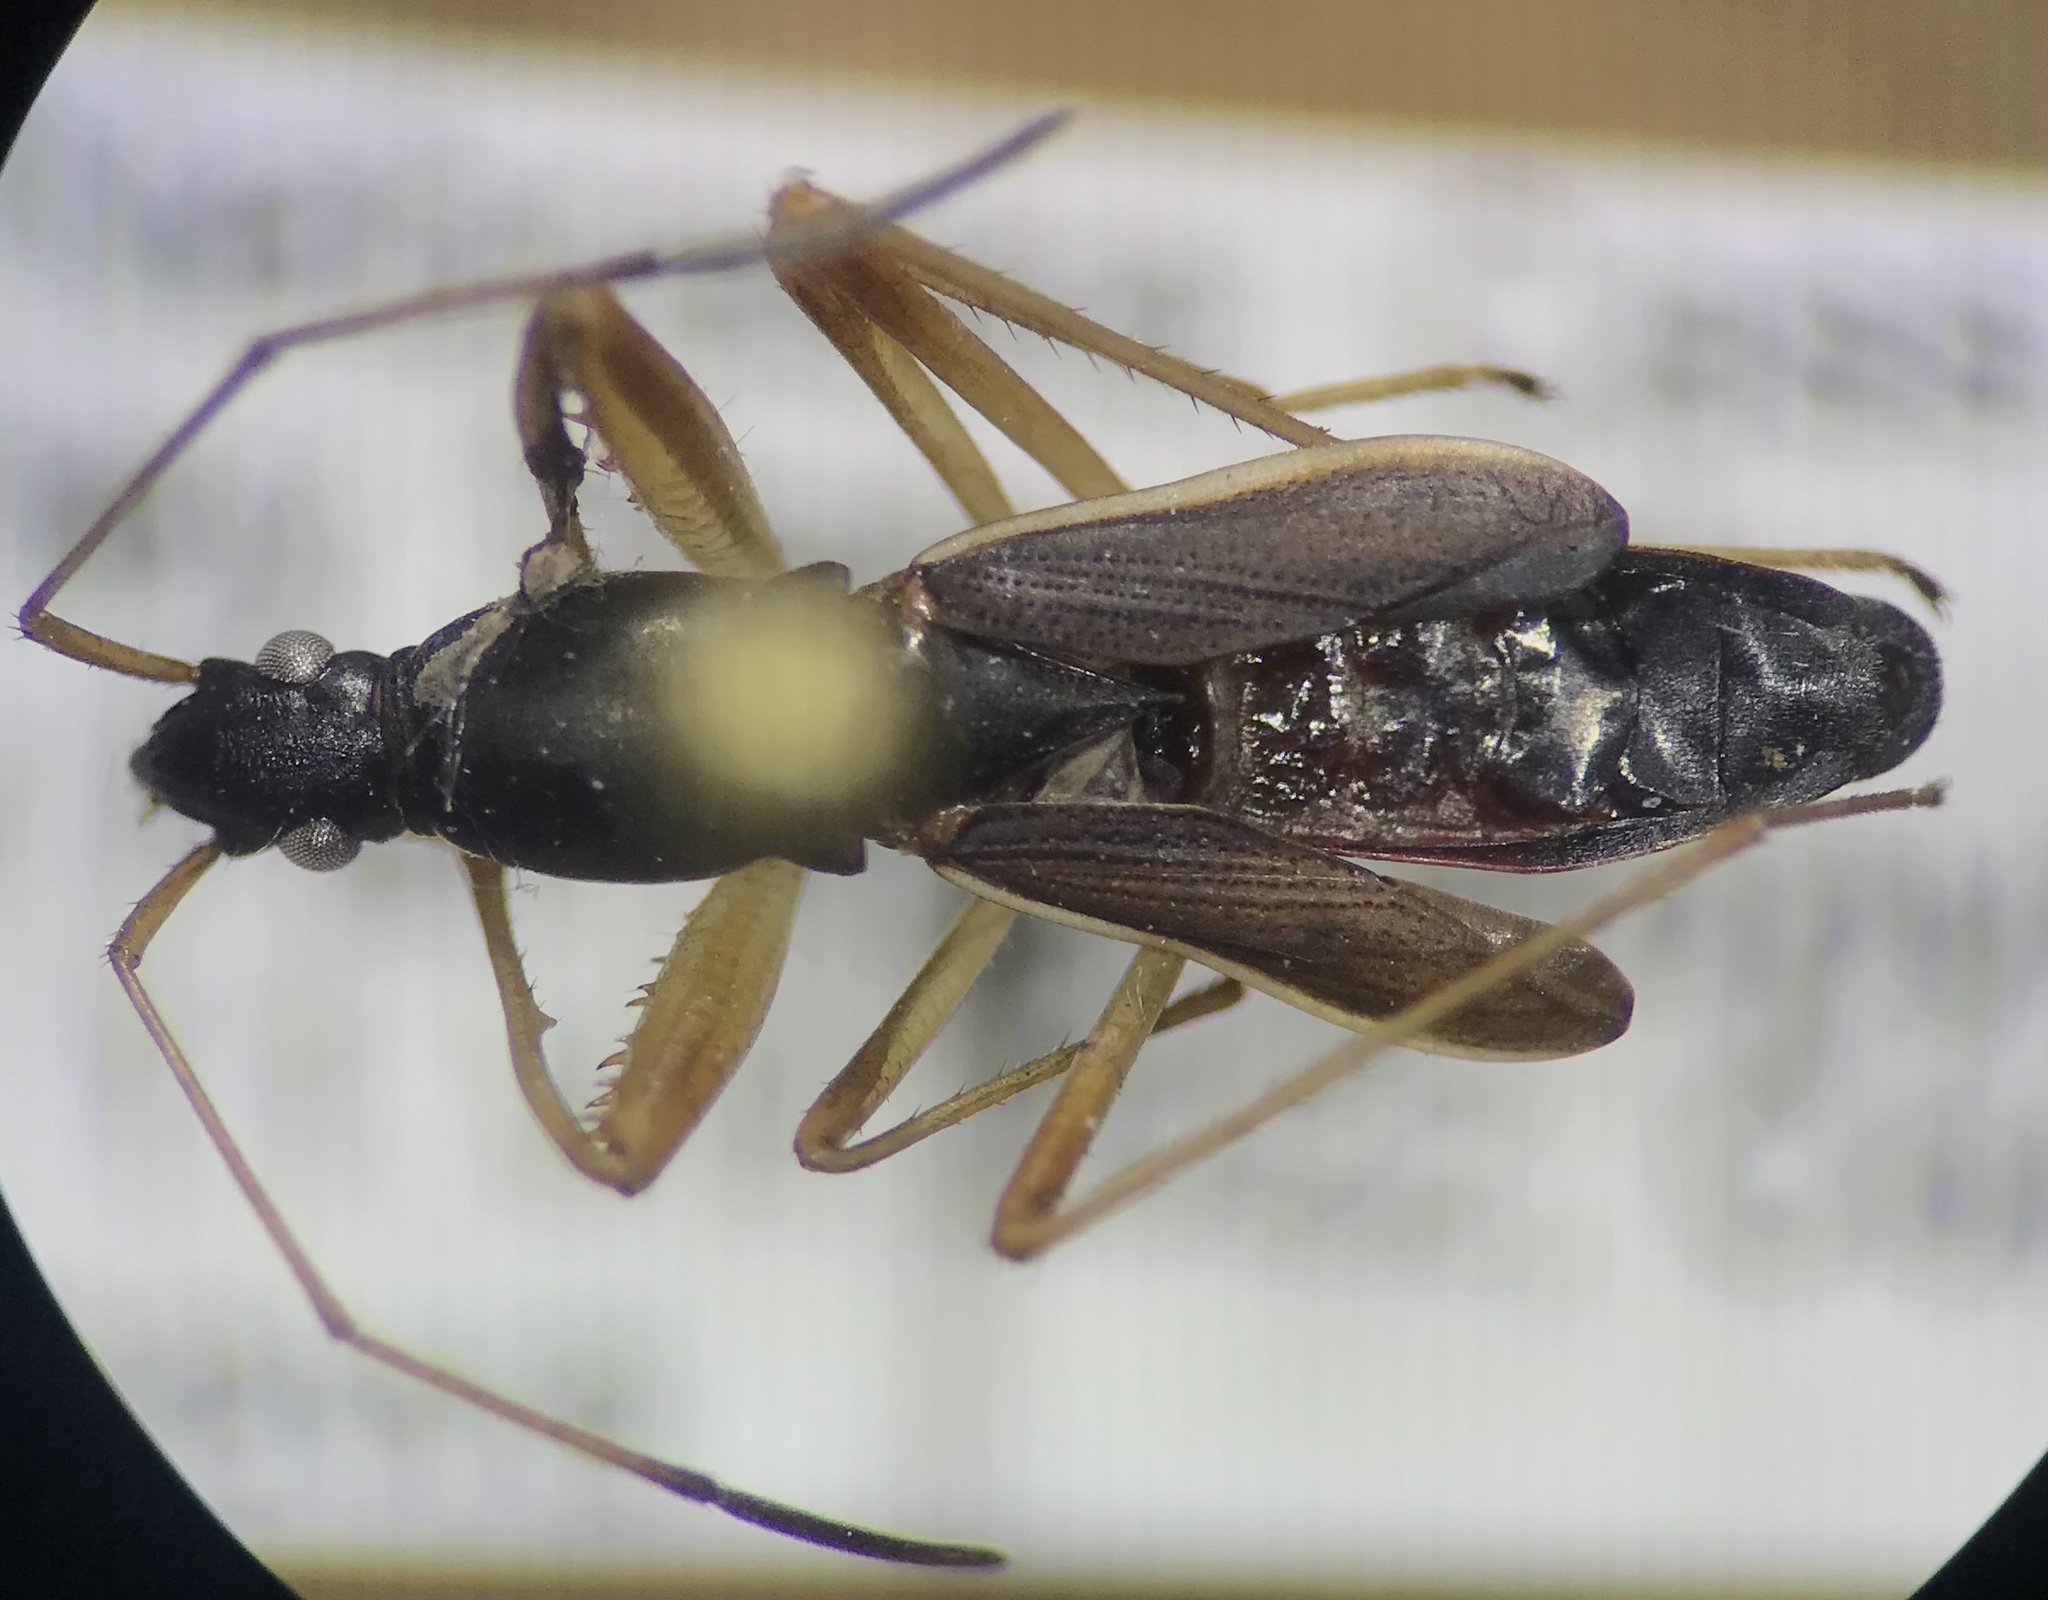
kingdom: Animalia
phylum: Arthropoda
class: Insecta
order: Hemiptera
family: Rhyparochromidae
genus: Cnemodus
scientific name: Cnemodus mavortius
